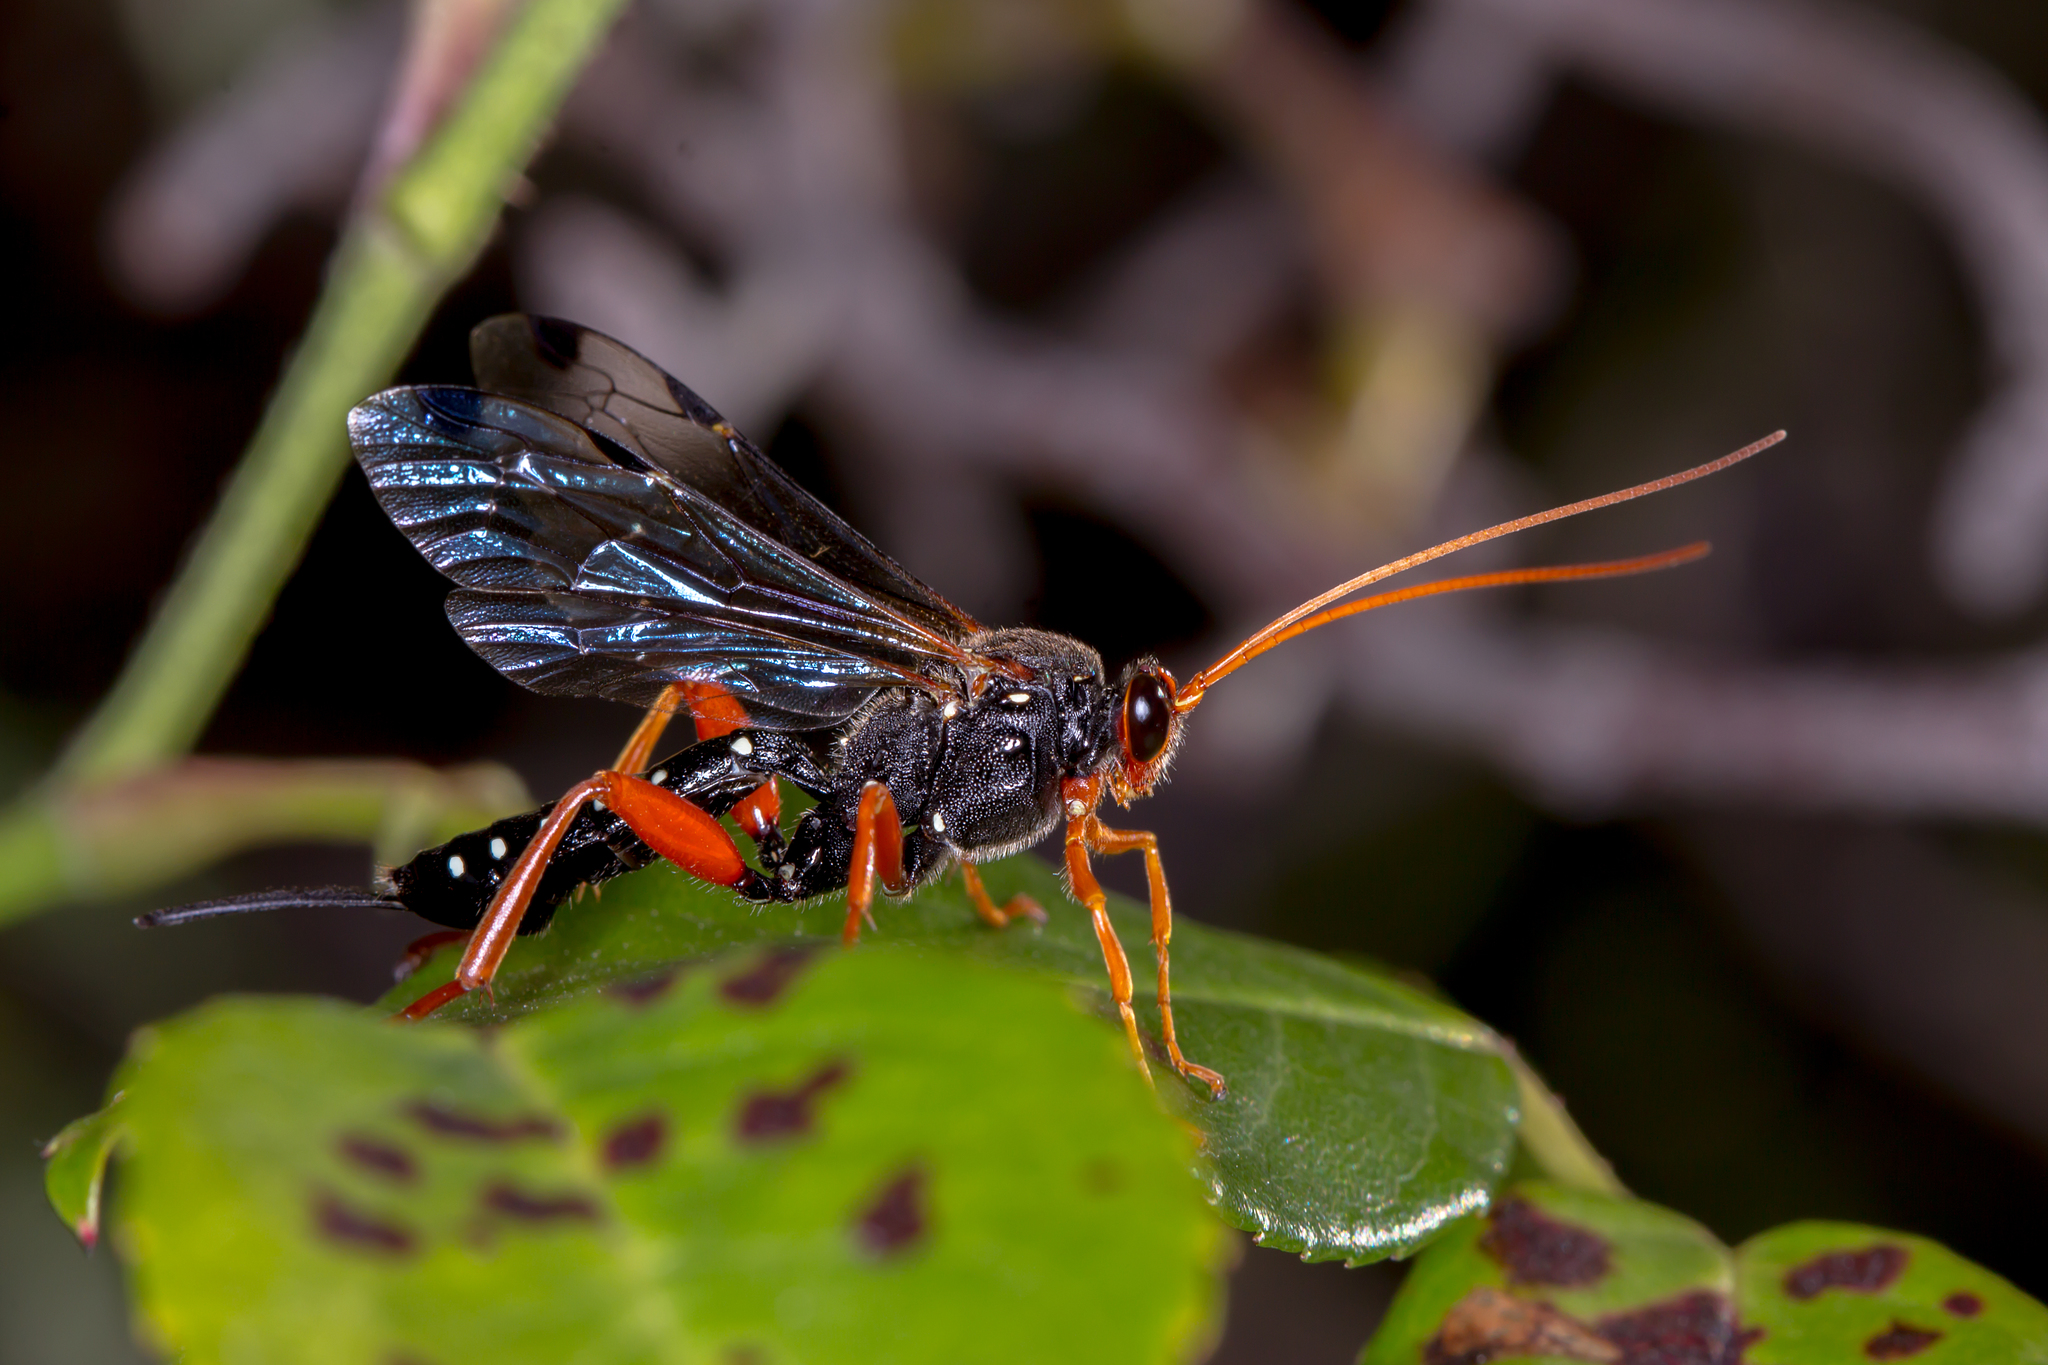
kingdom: Animalia
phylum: Arthropoda
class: Insecta
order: Hymenoptera
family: Ichneumonidae
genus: Echthromorpha
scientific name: Echthromorpha intricatoria
